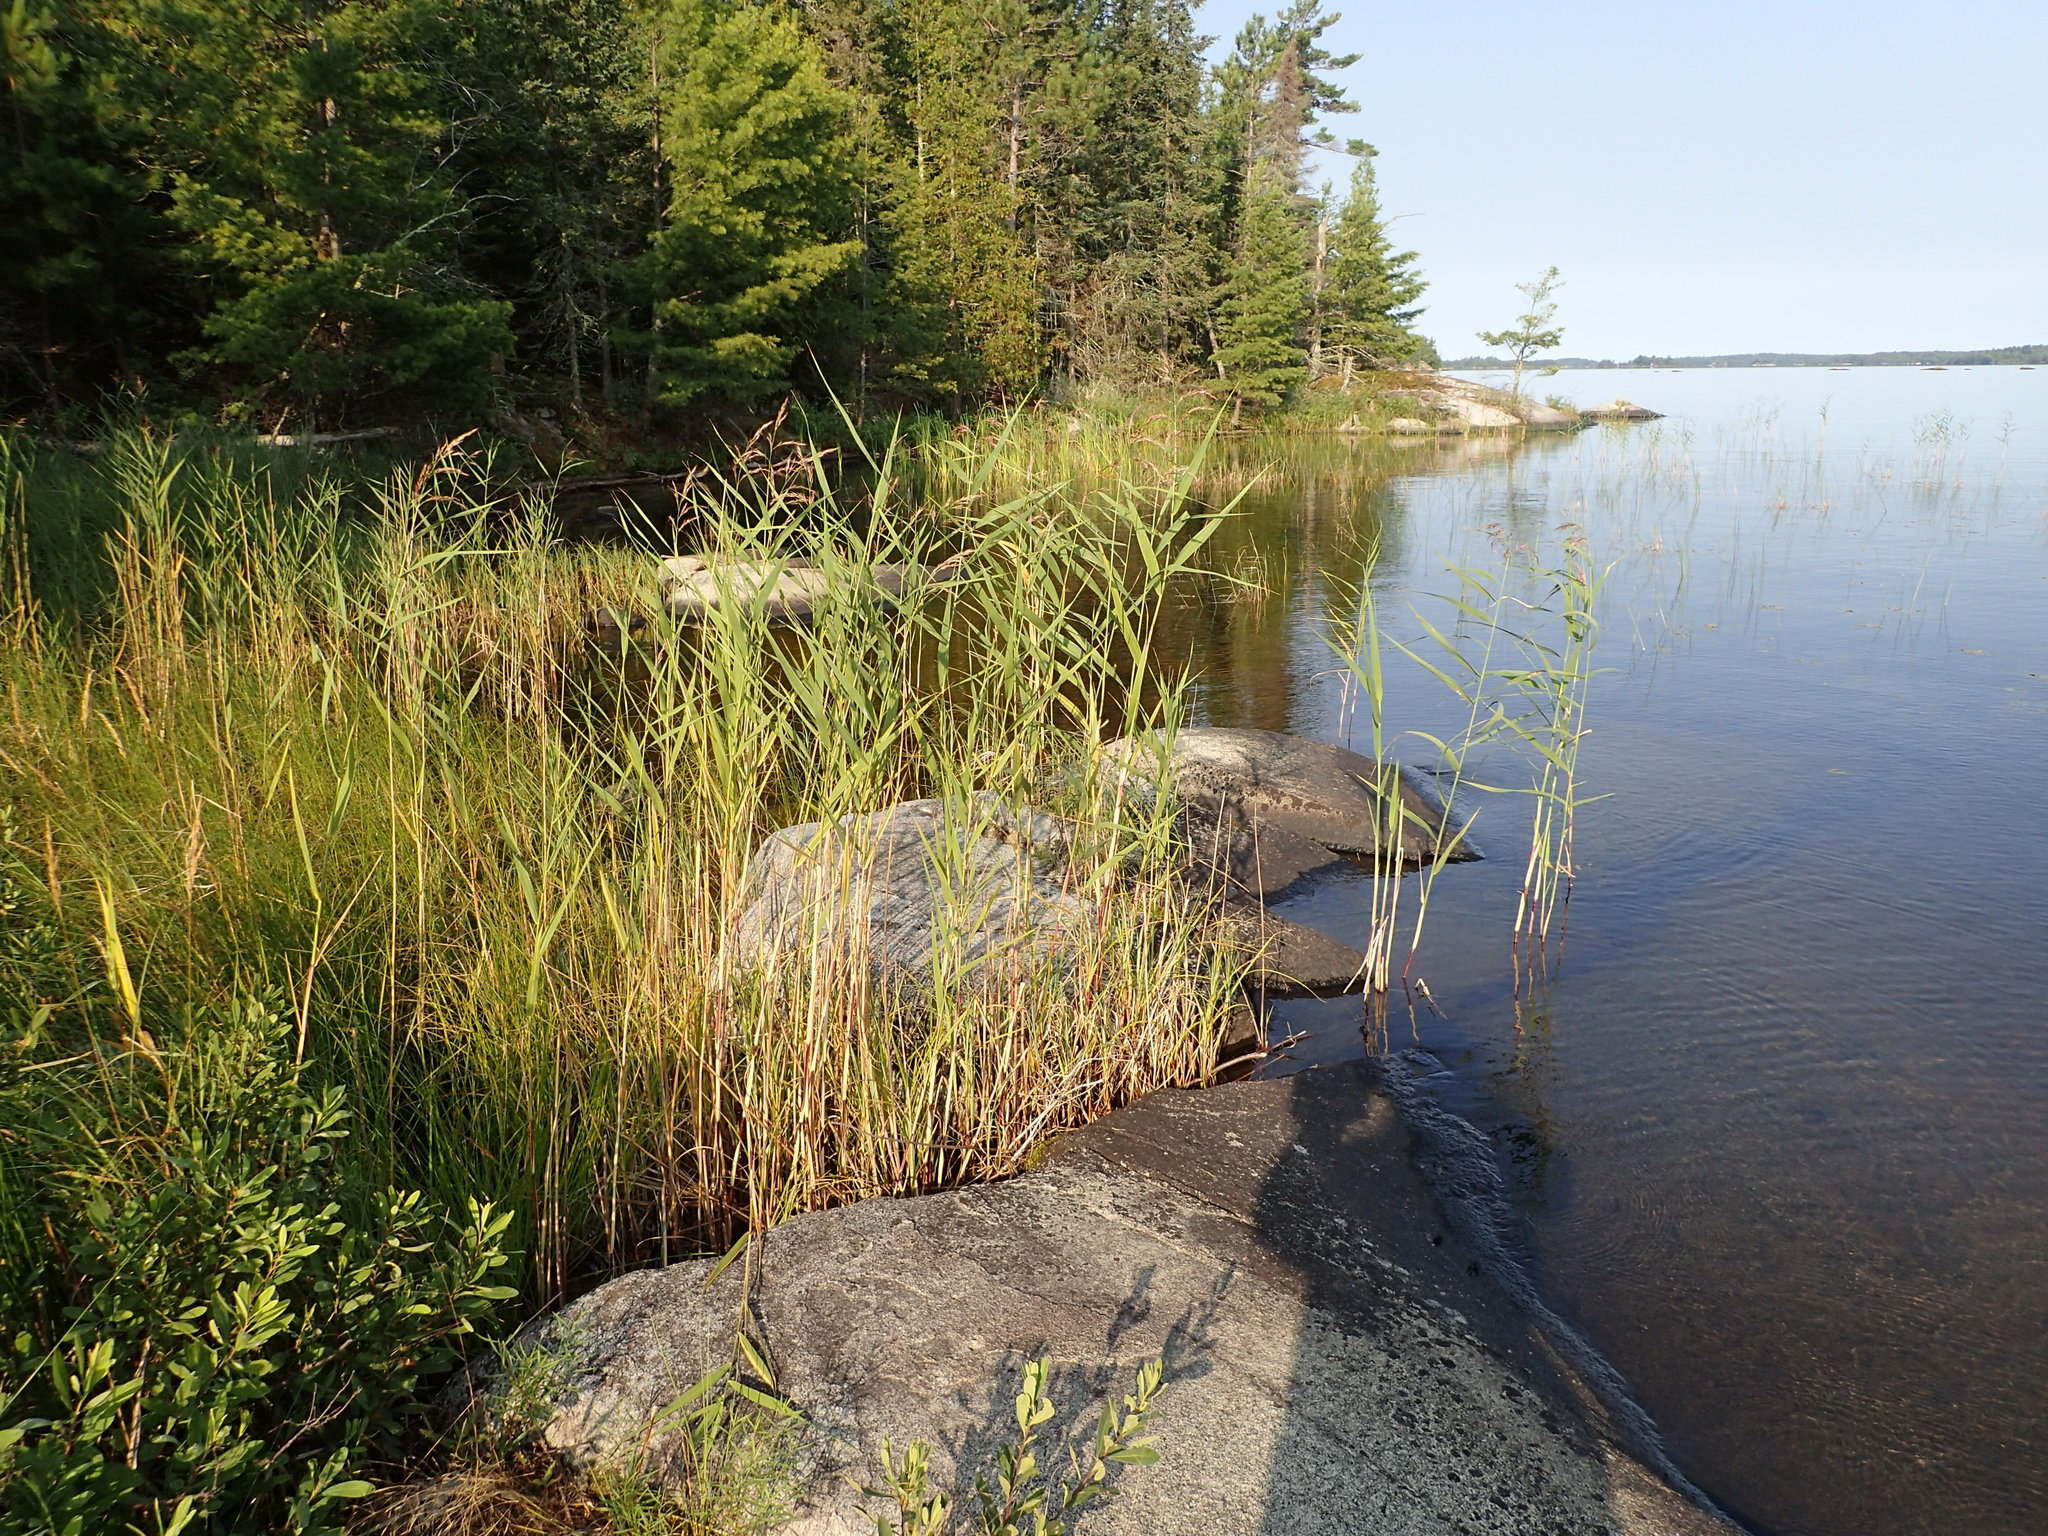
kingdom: Plantae
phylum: Tracheophyta
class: Liliopsida
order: Poales
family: Poaceae
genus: Phragmites
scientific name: Phragmites australis
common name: Common reed
